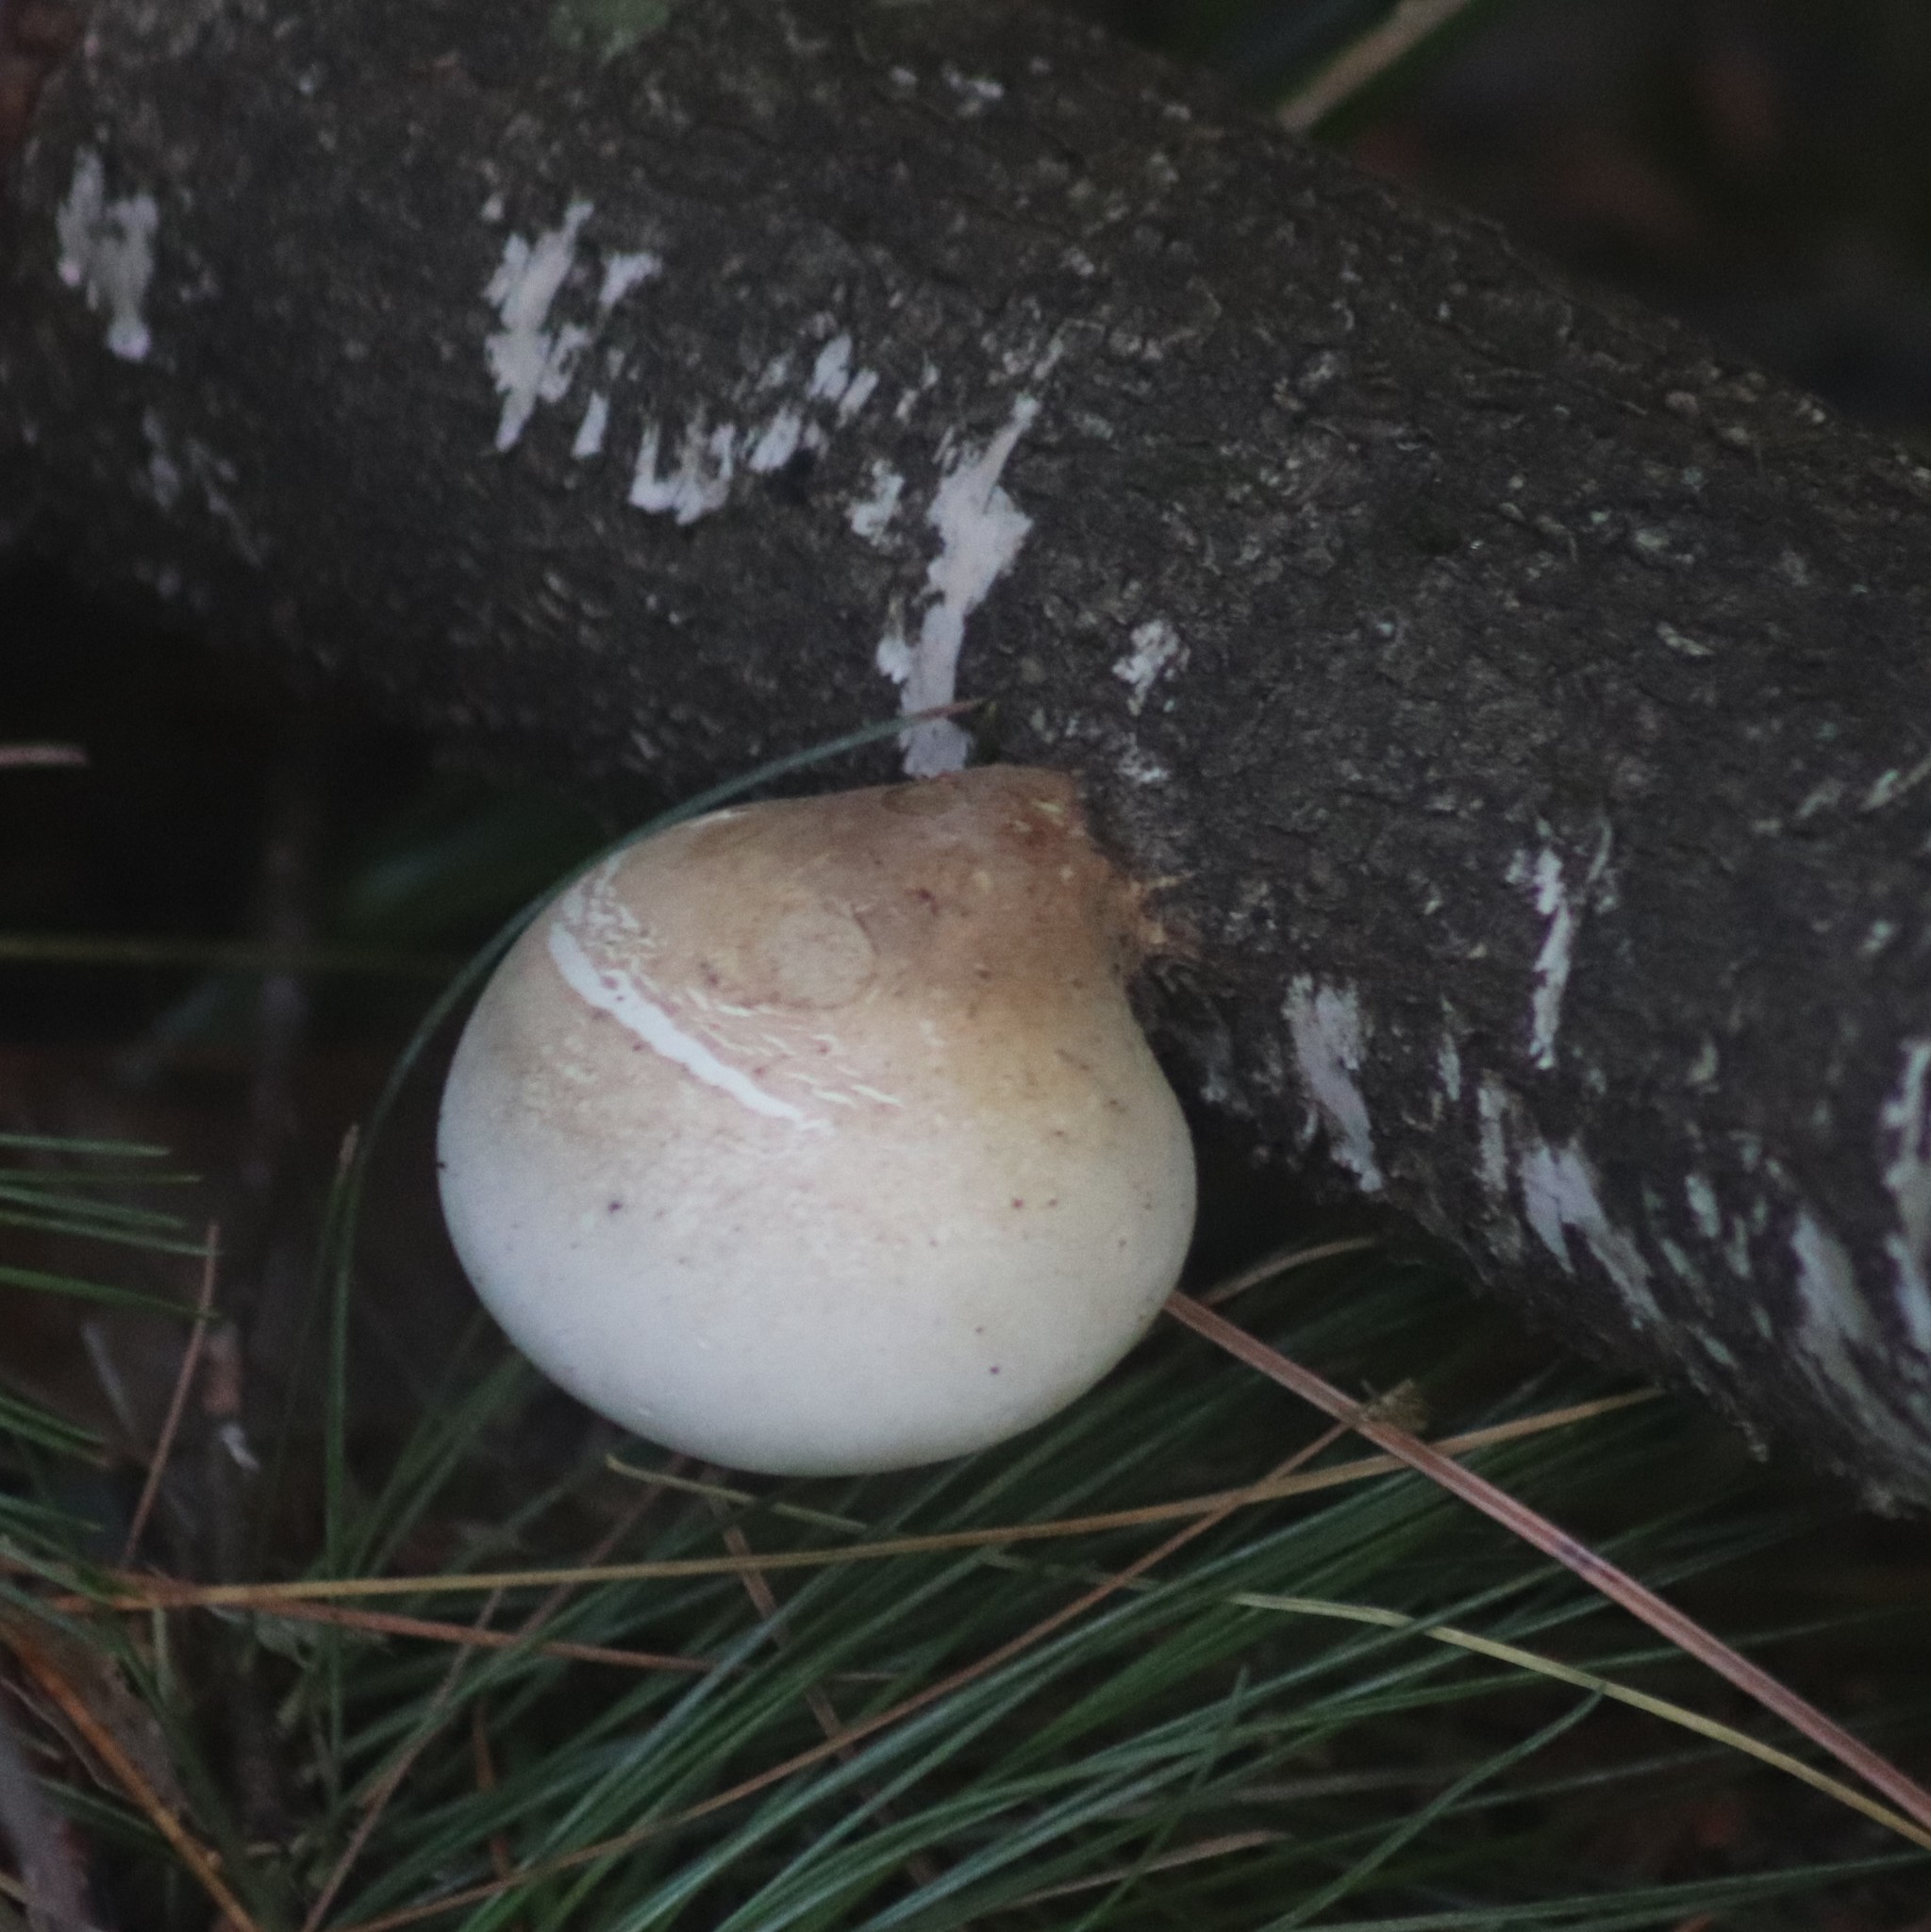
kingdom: Fungi
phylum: Basidiomycota
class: Agaricomycetes
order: Polyporales
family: Fomitopsidaceae
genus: Fomitopsis
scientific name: Fomitopsis betulina
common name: Birch polypore
